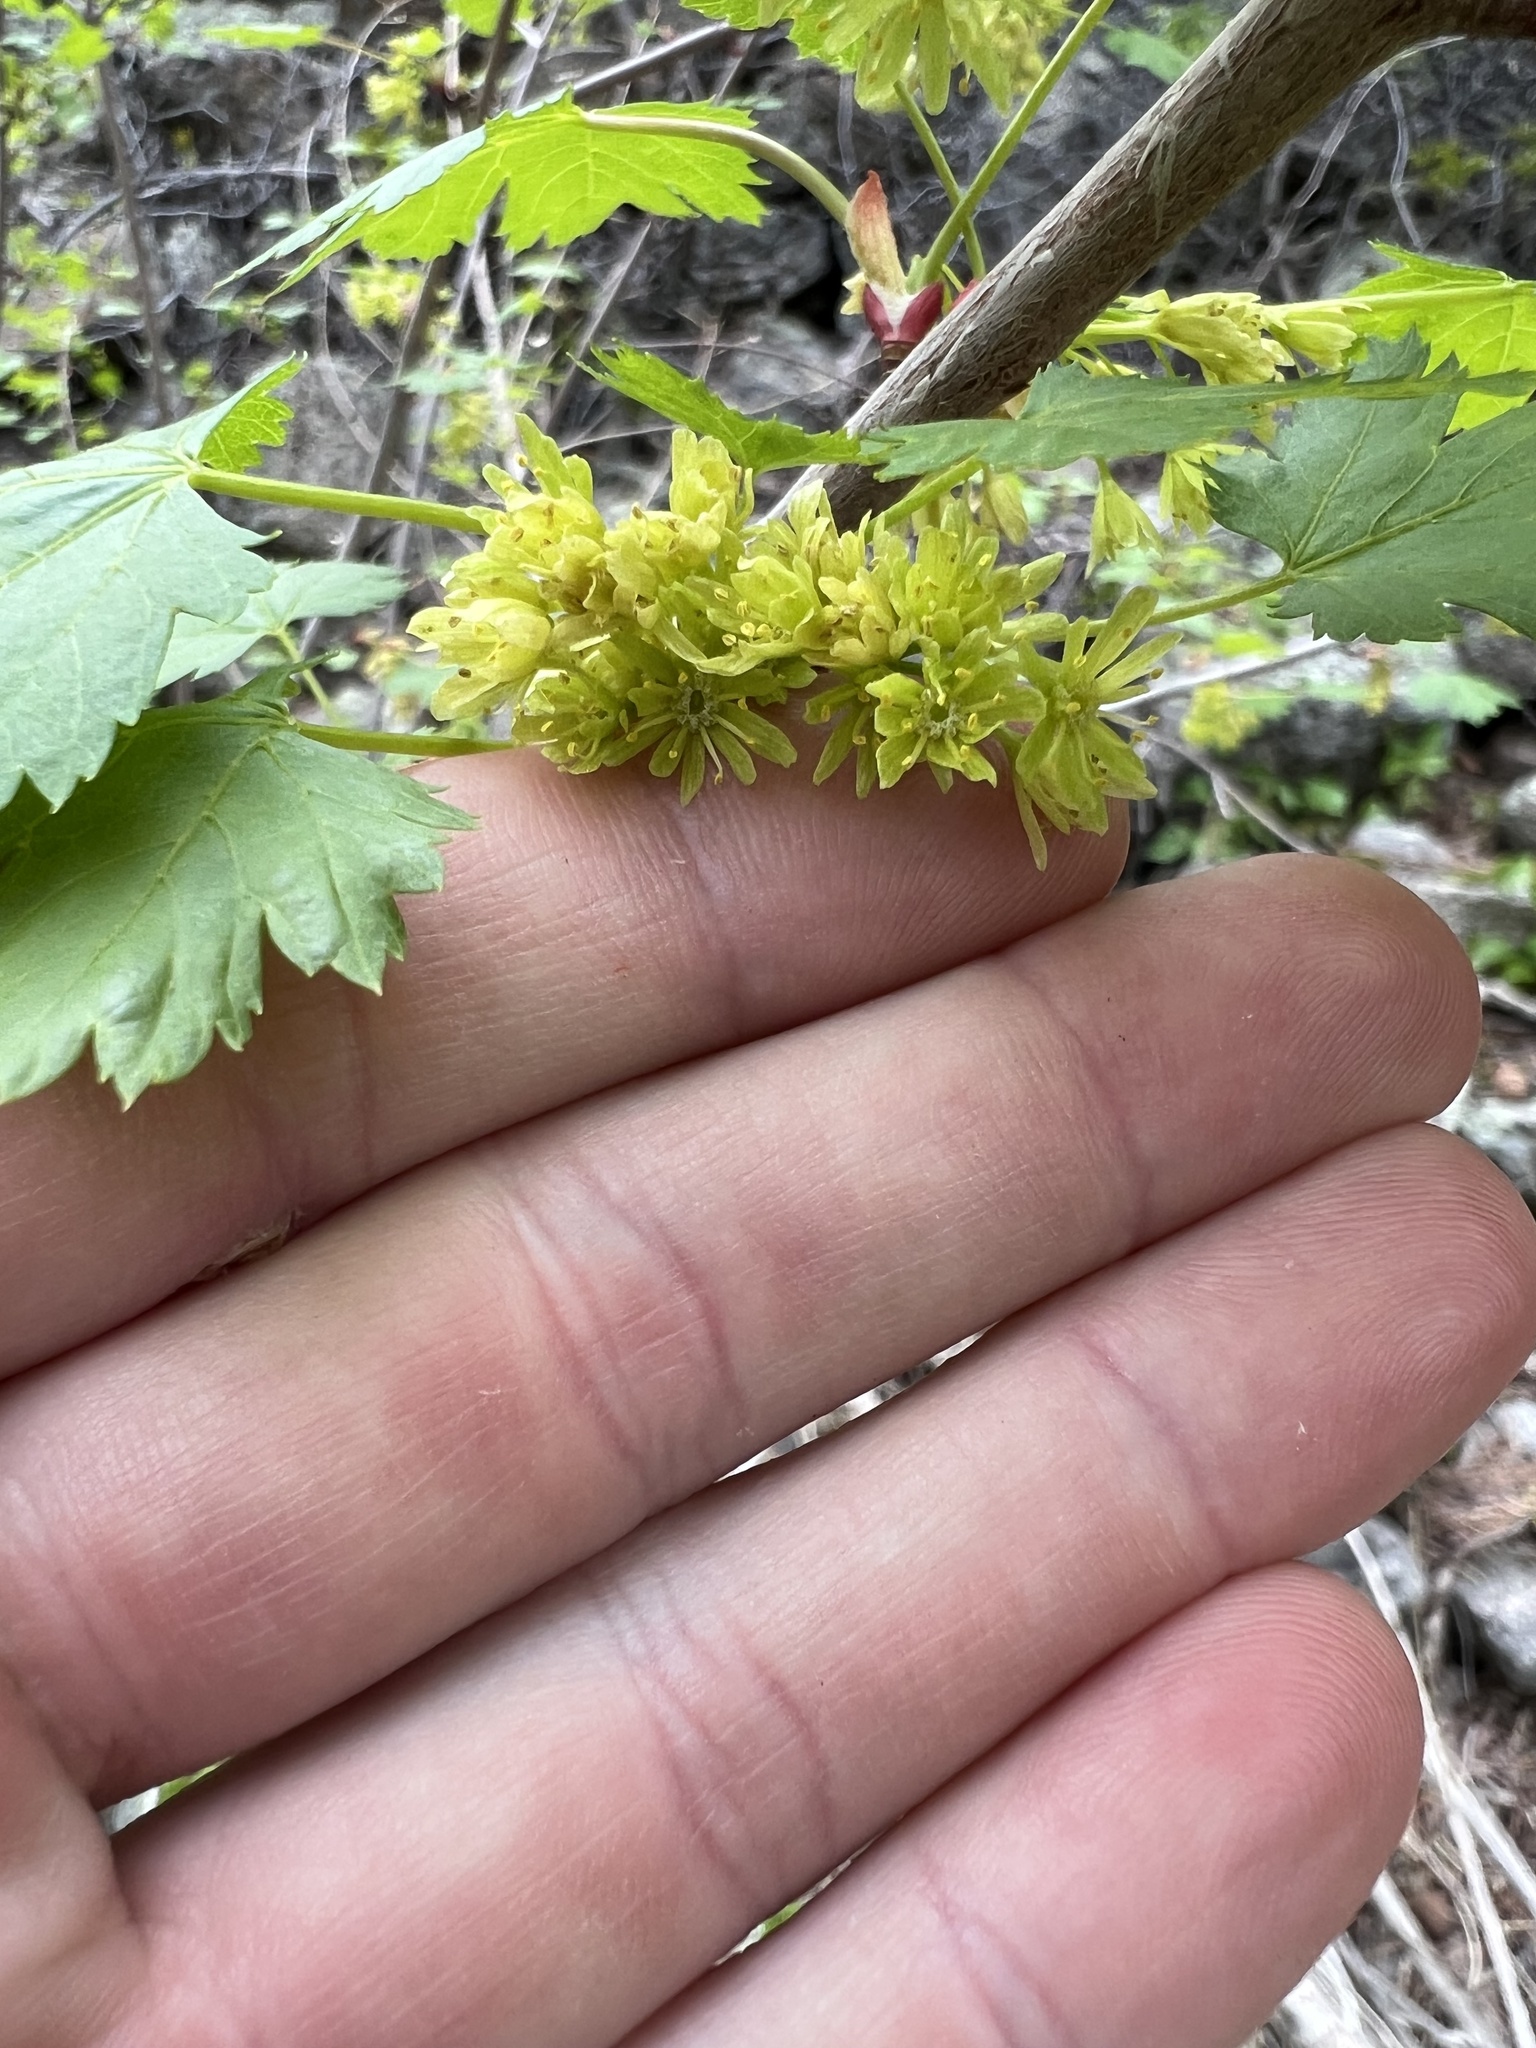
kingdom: Plantae
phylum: Tracheophyta
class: Magnoliopsida
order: Sapindales
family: Sapindaceae
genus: Acer
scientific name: Acer glabrum
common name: Rocky mountain maple
